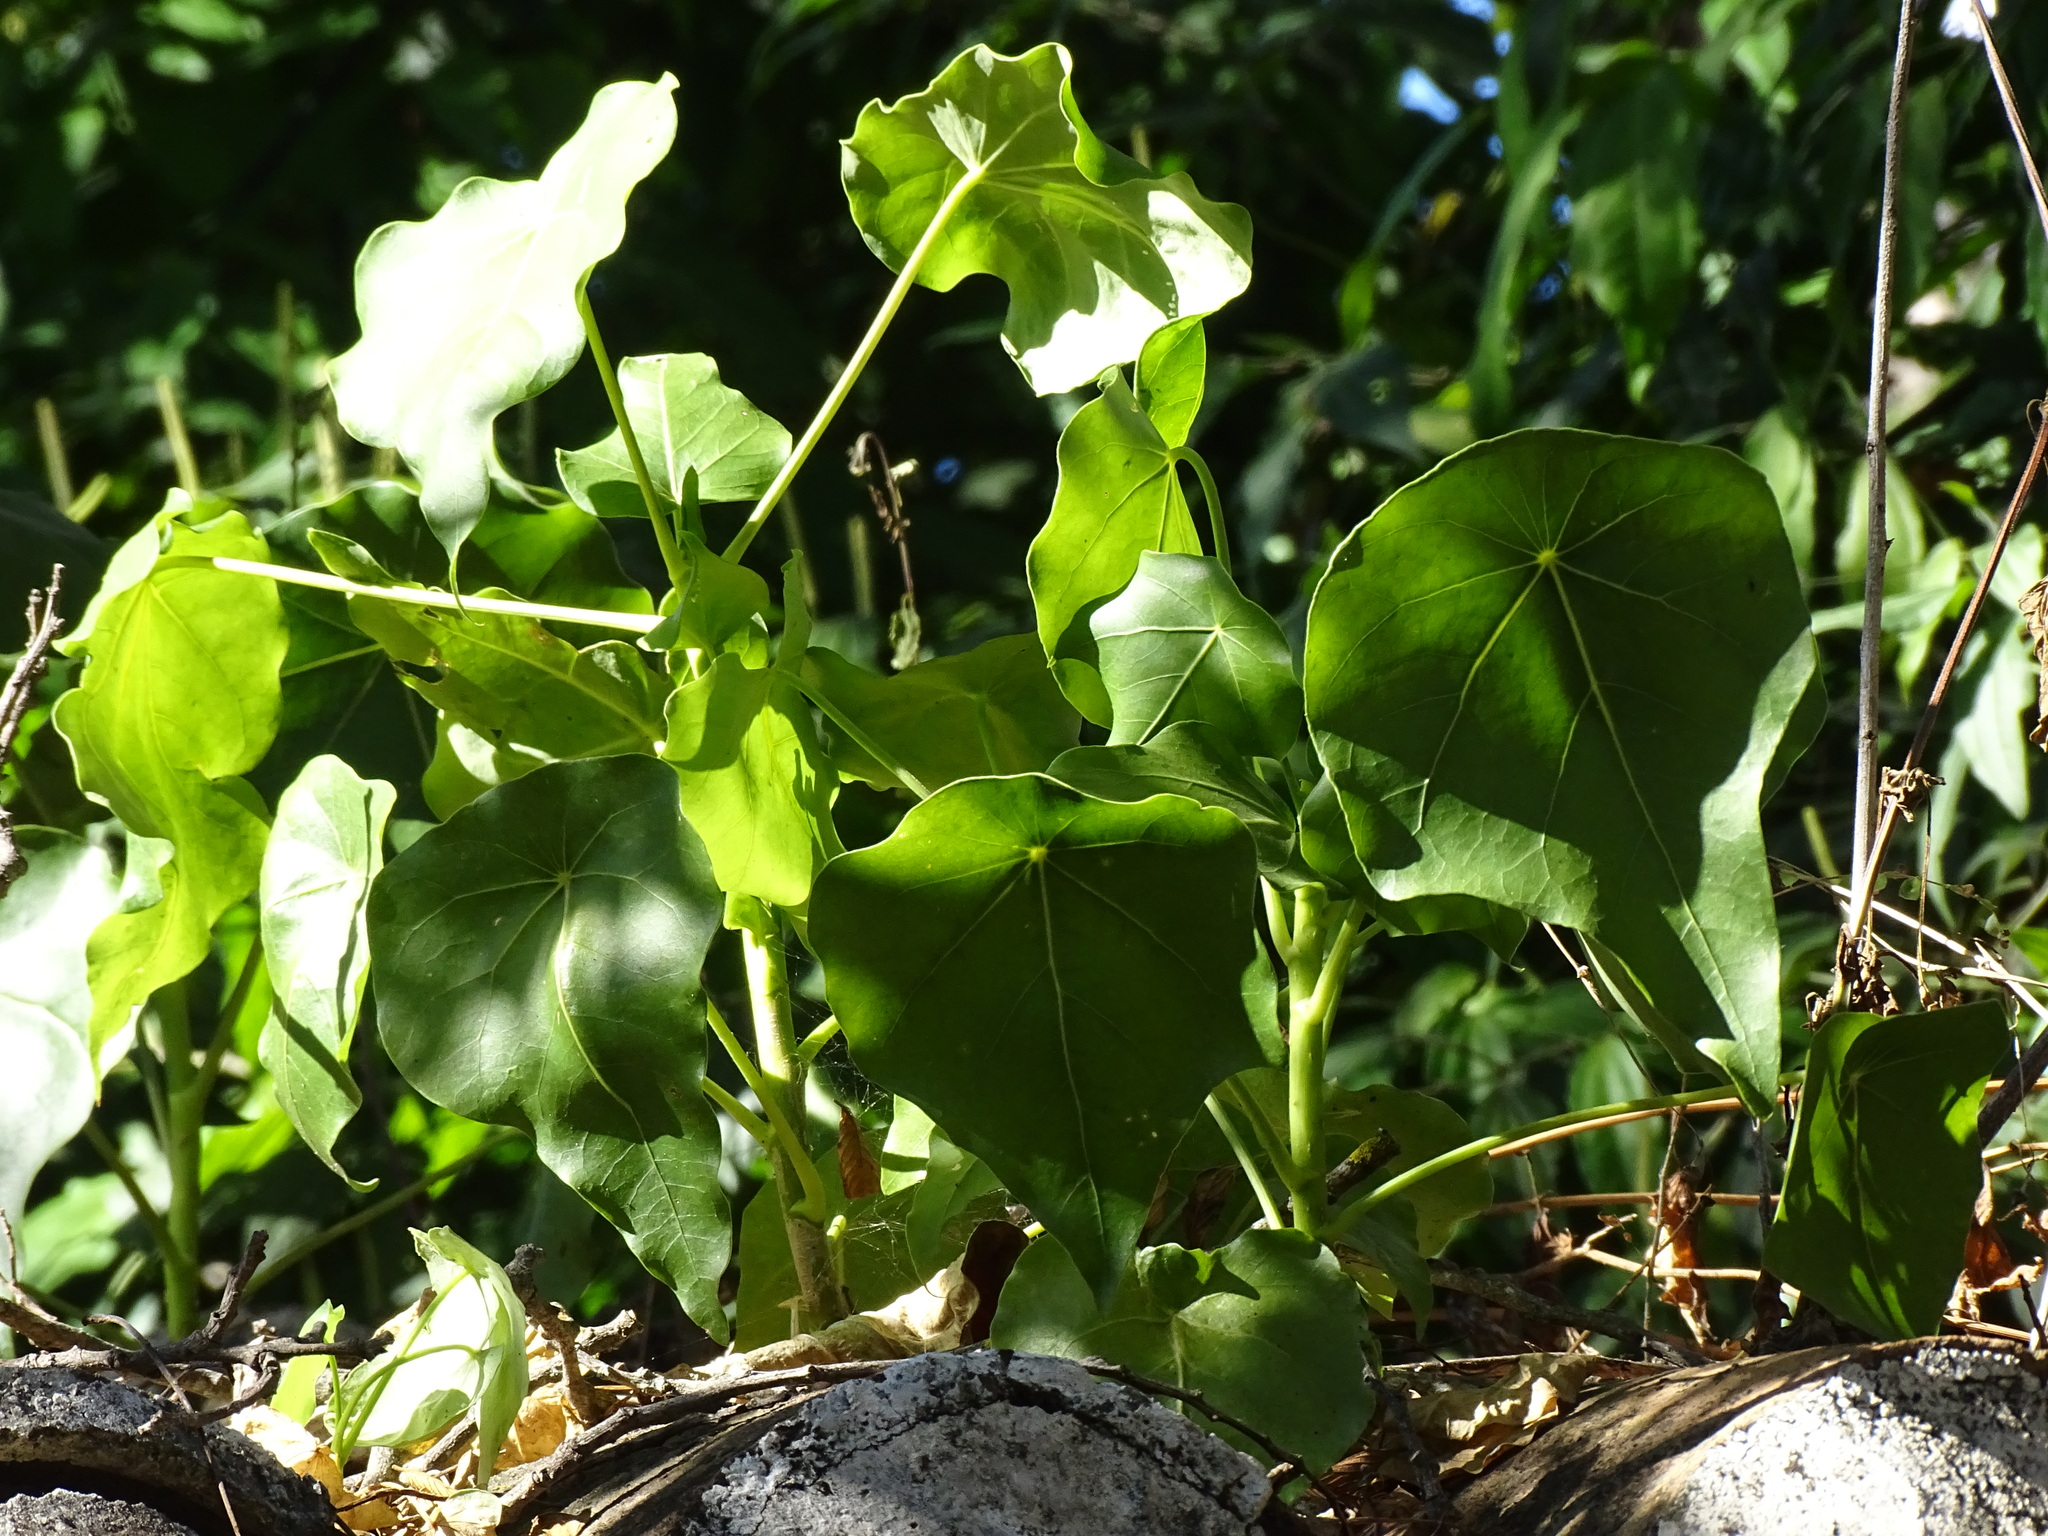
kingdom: Plantae
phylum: Tracheophyta
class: Magnoliopsida
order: Apiales
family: Araliaceae
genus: Dendropanax
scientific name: Dendropanax arboreus
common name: Potato-wood
